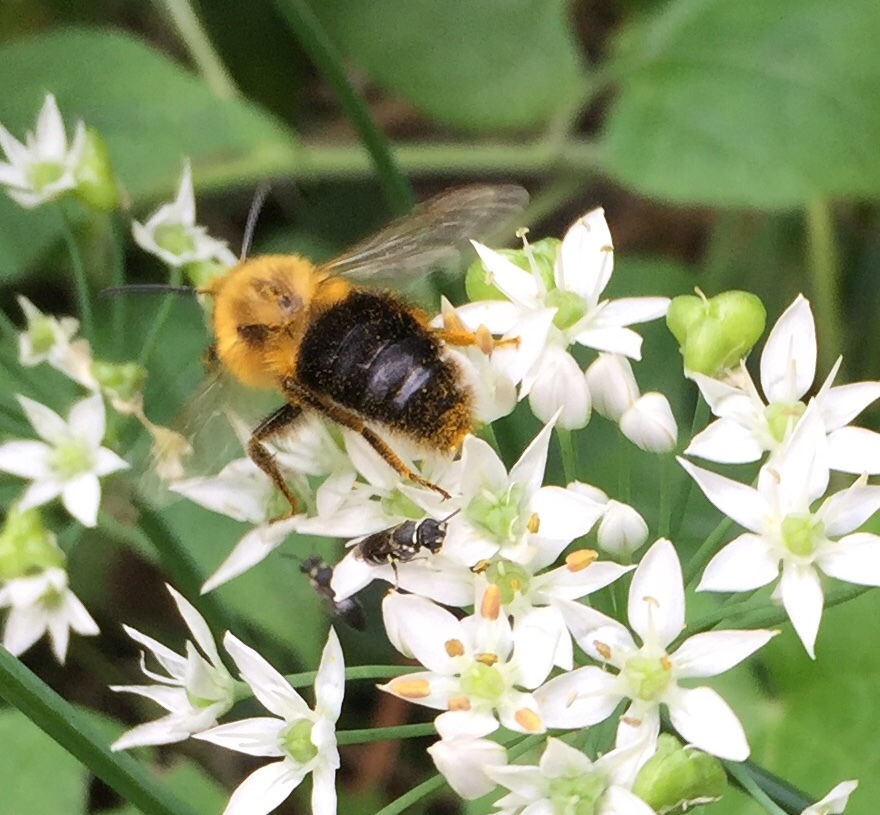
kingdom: Animalia
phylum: Arthropoda
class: Insecta
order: Hymenoptera
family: Apidae
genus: Bombus
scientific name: Bombus impatiens
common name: Common eastern bumble bee
